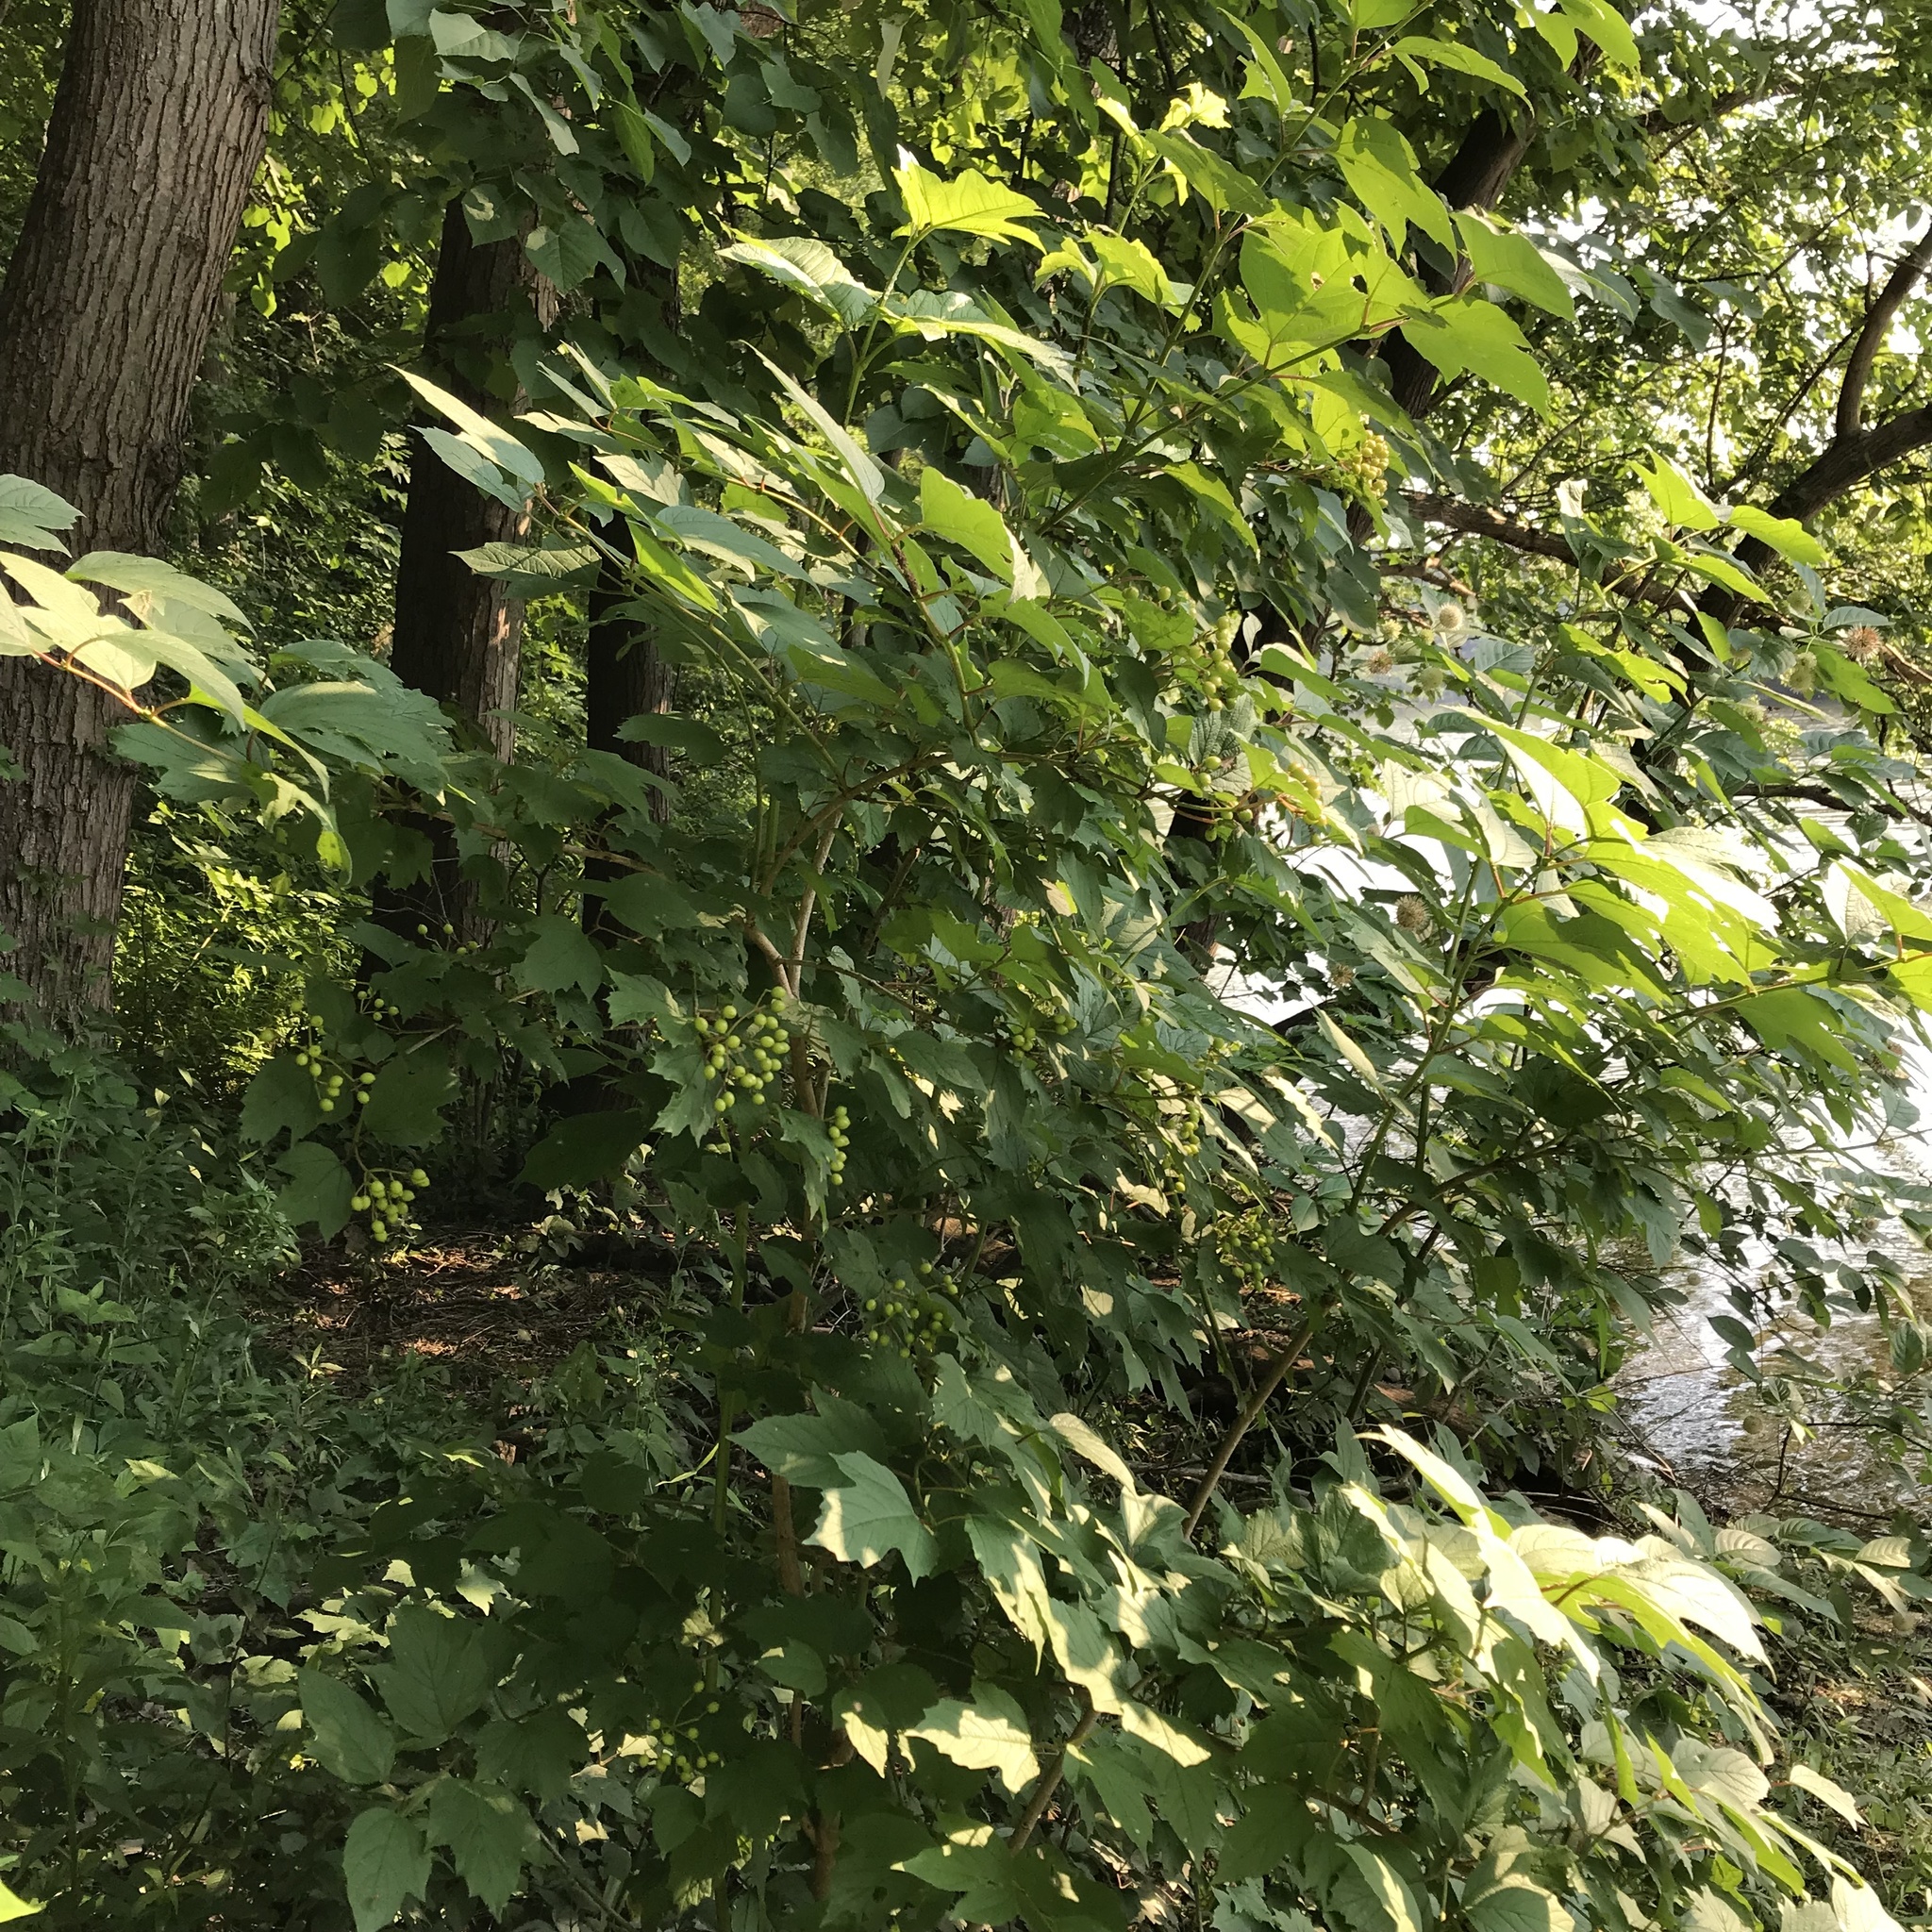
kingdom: Plantae
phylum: Tracheophyta
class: Magnoliopsida
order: Dipsacales
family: Viburnaceae
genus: Viburnum
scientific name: Viburnum opulus
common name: Guelder-rose
